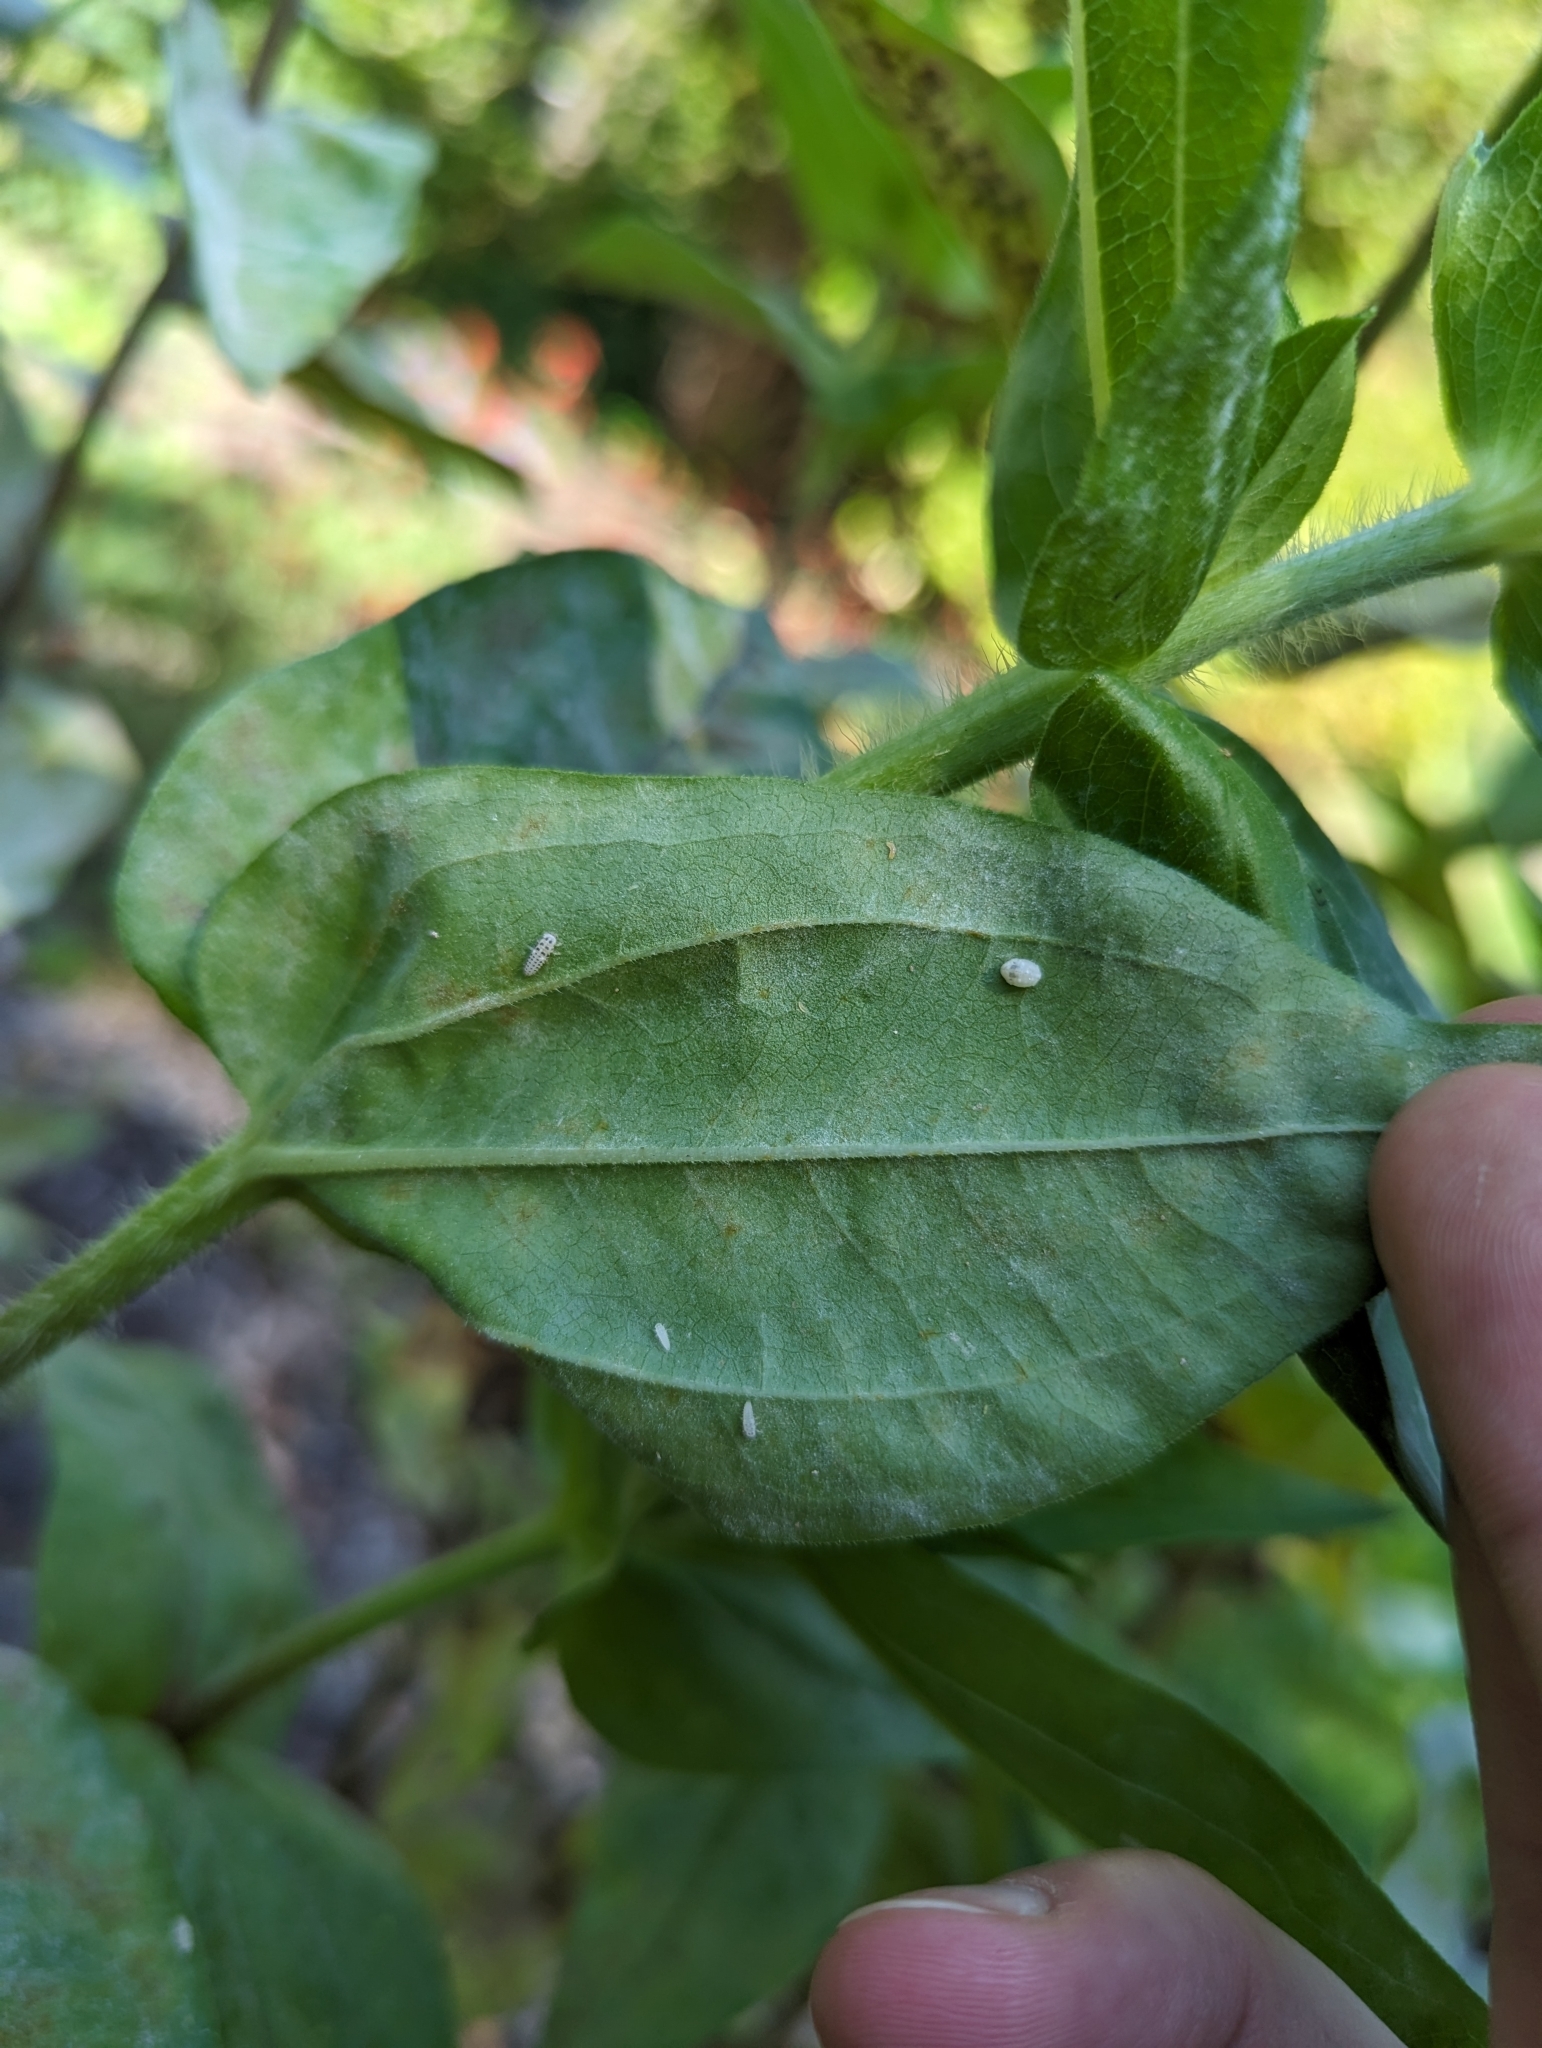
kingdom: Animalia
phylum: Arthropoda
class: Insecta
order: Coleoptera
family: Coccinellidae
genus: Psyllobora
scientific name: Psyllobora vigintimaculata
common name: Ladybird beetle
